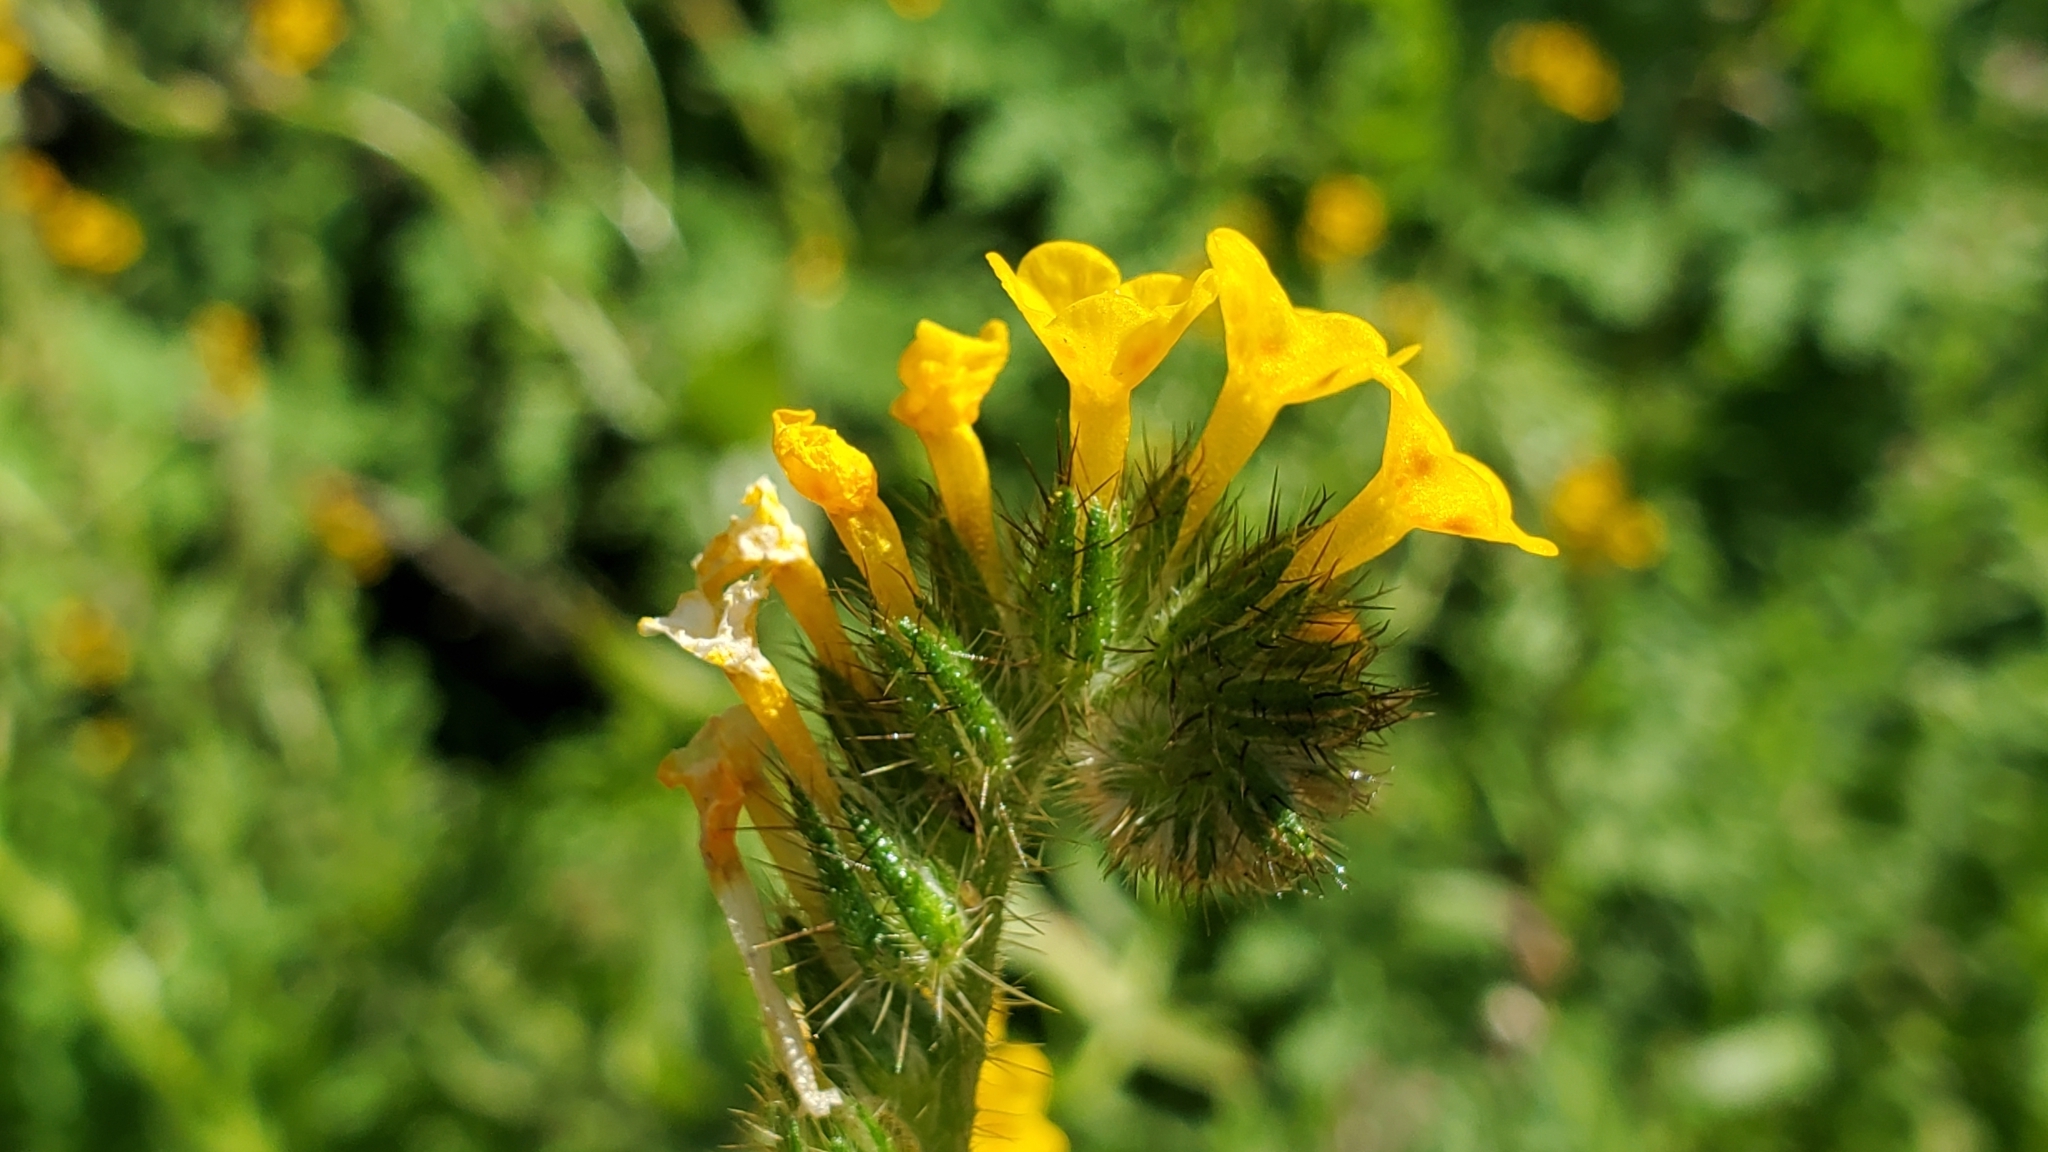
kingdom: Plantae
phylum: Tracheophyta
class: Magnoliopsida
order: Boraginales
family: Boraginaceae
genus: Amsinckia
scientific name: Amsinckia menziesii
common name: Menzies' fiddleneck
